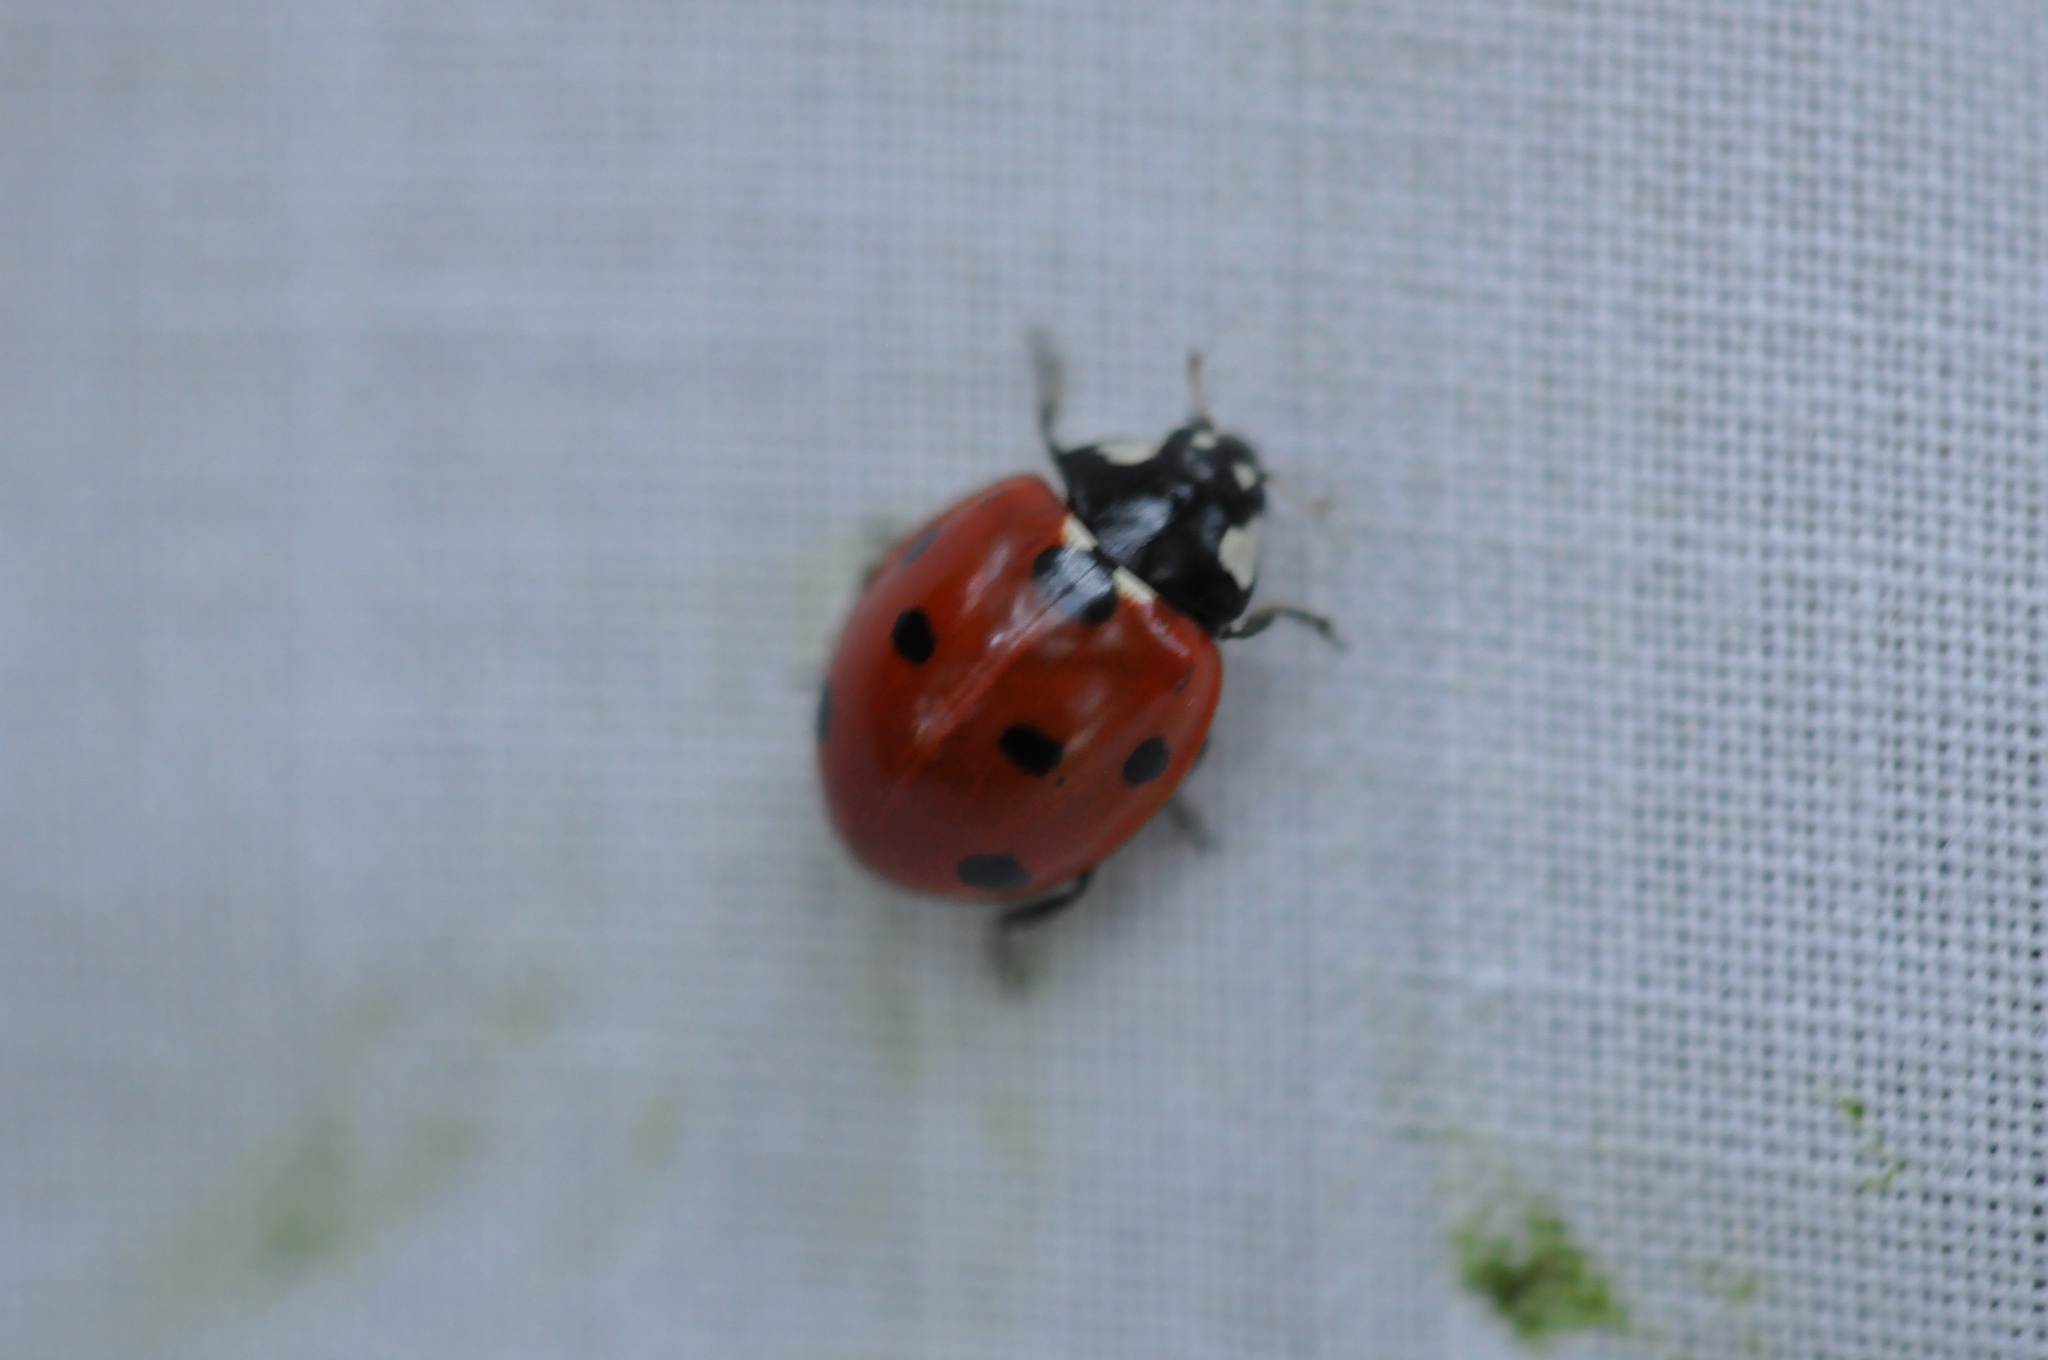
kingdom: Animalia
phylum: Arthropoda
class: Insecta
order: Coleoptera
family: Coccinellidae
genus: Coccinella
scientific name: Coccinella septempunctata
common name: Sevenspotted lady beetle
